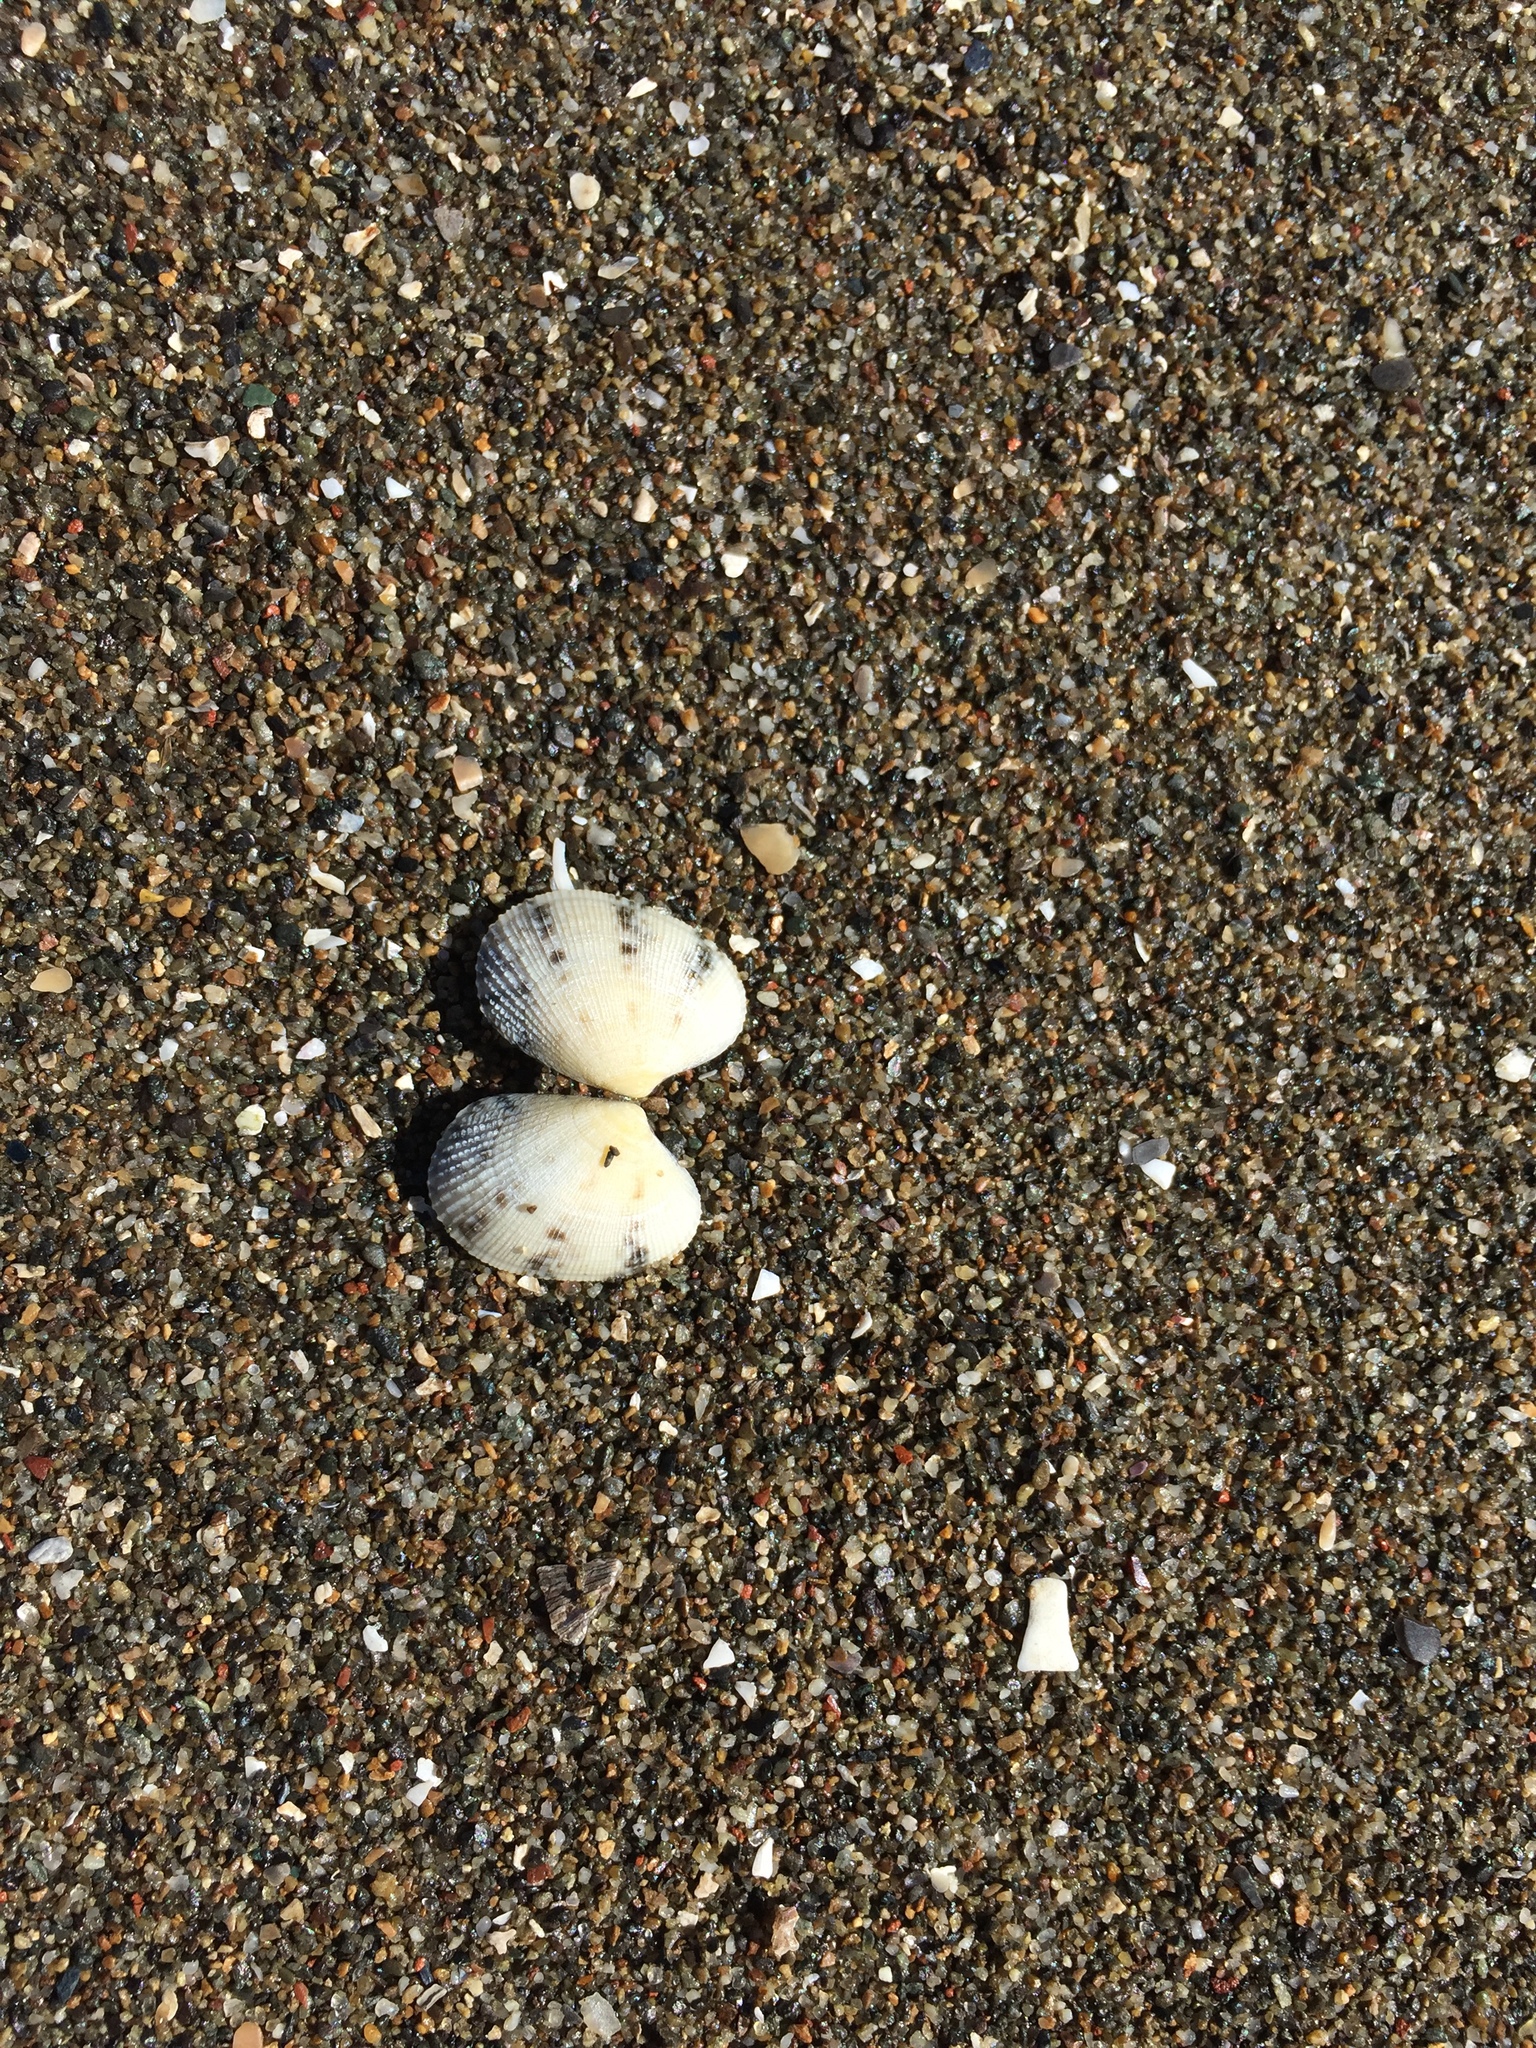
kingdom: Animalia
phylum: Mollusca
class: Bivalvia
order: Venerida
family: Veneridae
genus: Ruditapes
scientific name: Ruditapes philippinarum
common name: Manila clam
